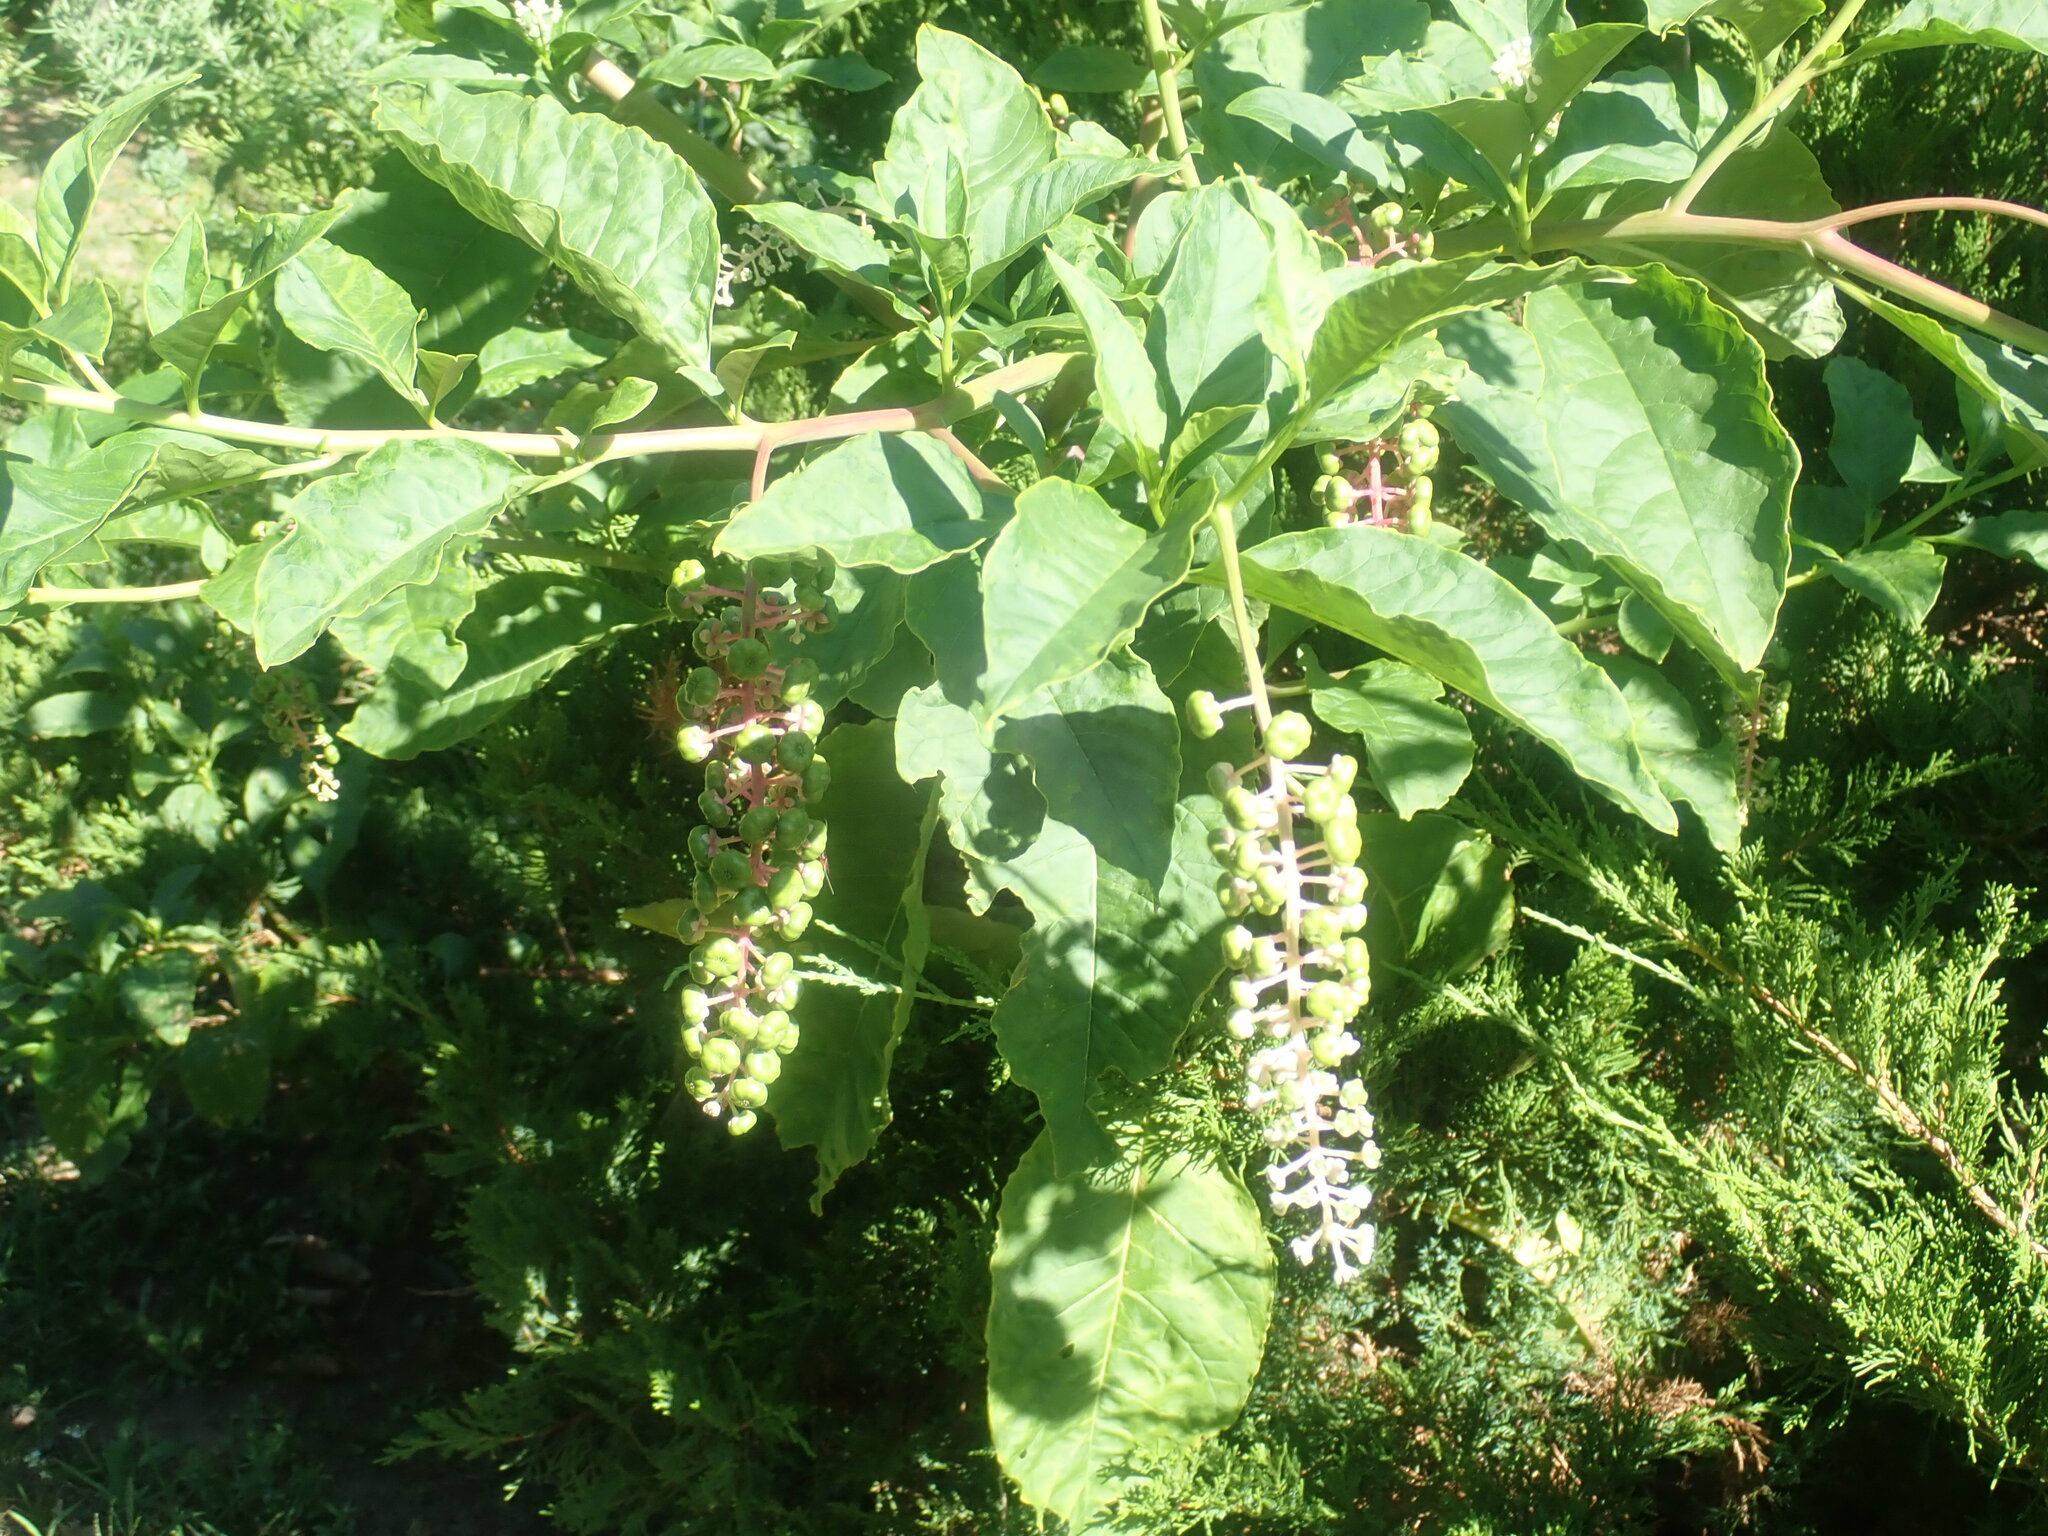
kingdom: Plantae
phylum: Tracheophyta
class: Magnoliopsida
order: Caryophyllales
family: Phytolaccaceae
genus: Phytolacca
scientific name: Phytolacca americana
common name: American pokeweed
